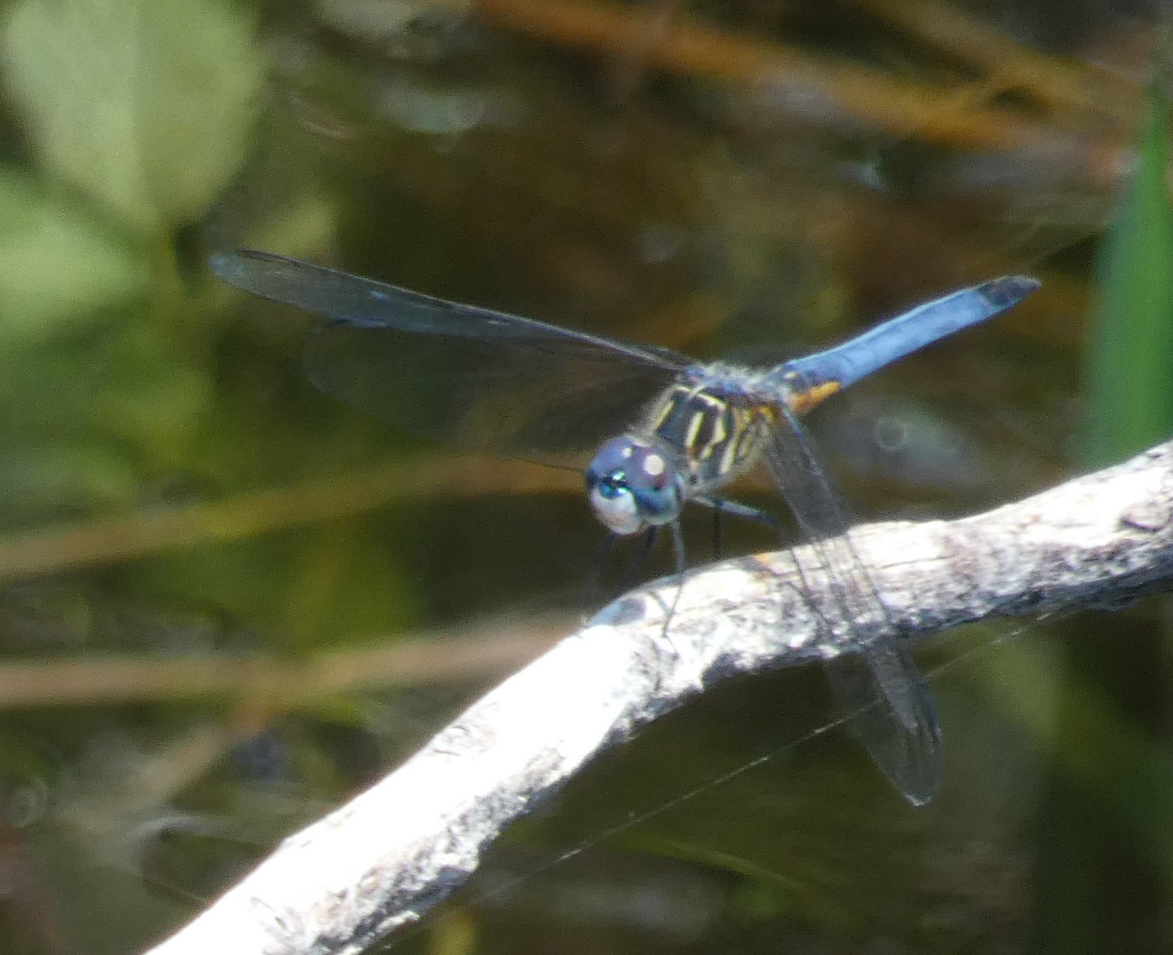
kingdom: Animalia
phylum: Arthropoda
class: Insecta
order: Odonata
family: Libellulidae
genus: Pachydiplax
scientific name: Pachydiplax longipennis
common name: Blue dasher
